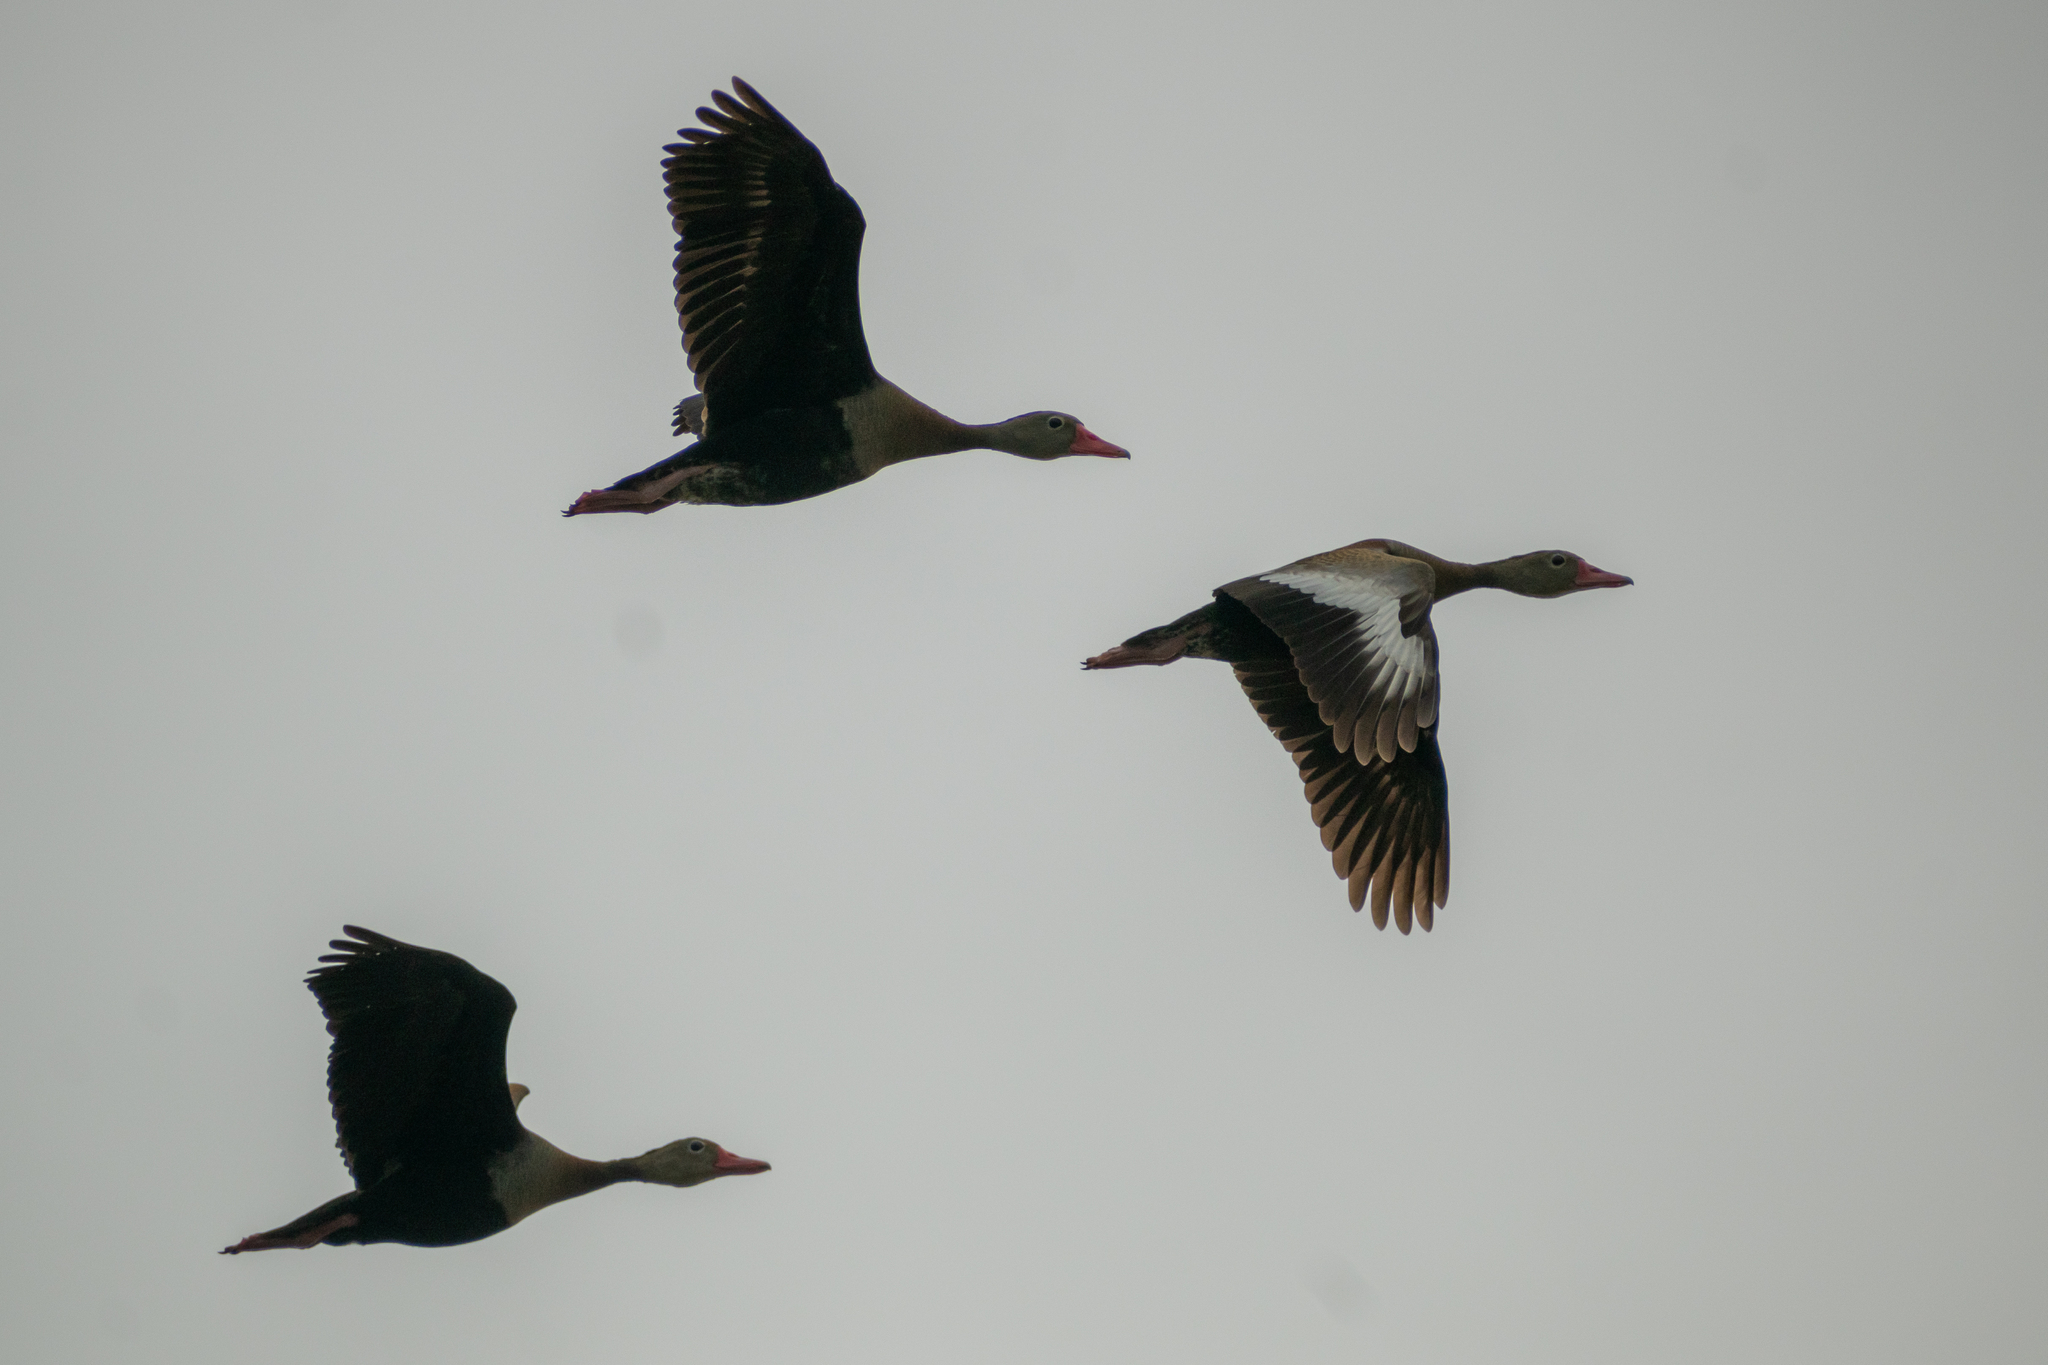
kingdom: Animalia
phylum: Chordata
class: Aves
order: Anseriformes
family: Anatidae
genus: Dendrocygna
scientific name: Dendrocygna autumnalis
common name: Black-bellied whistling duck
